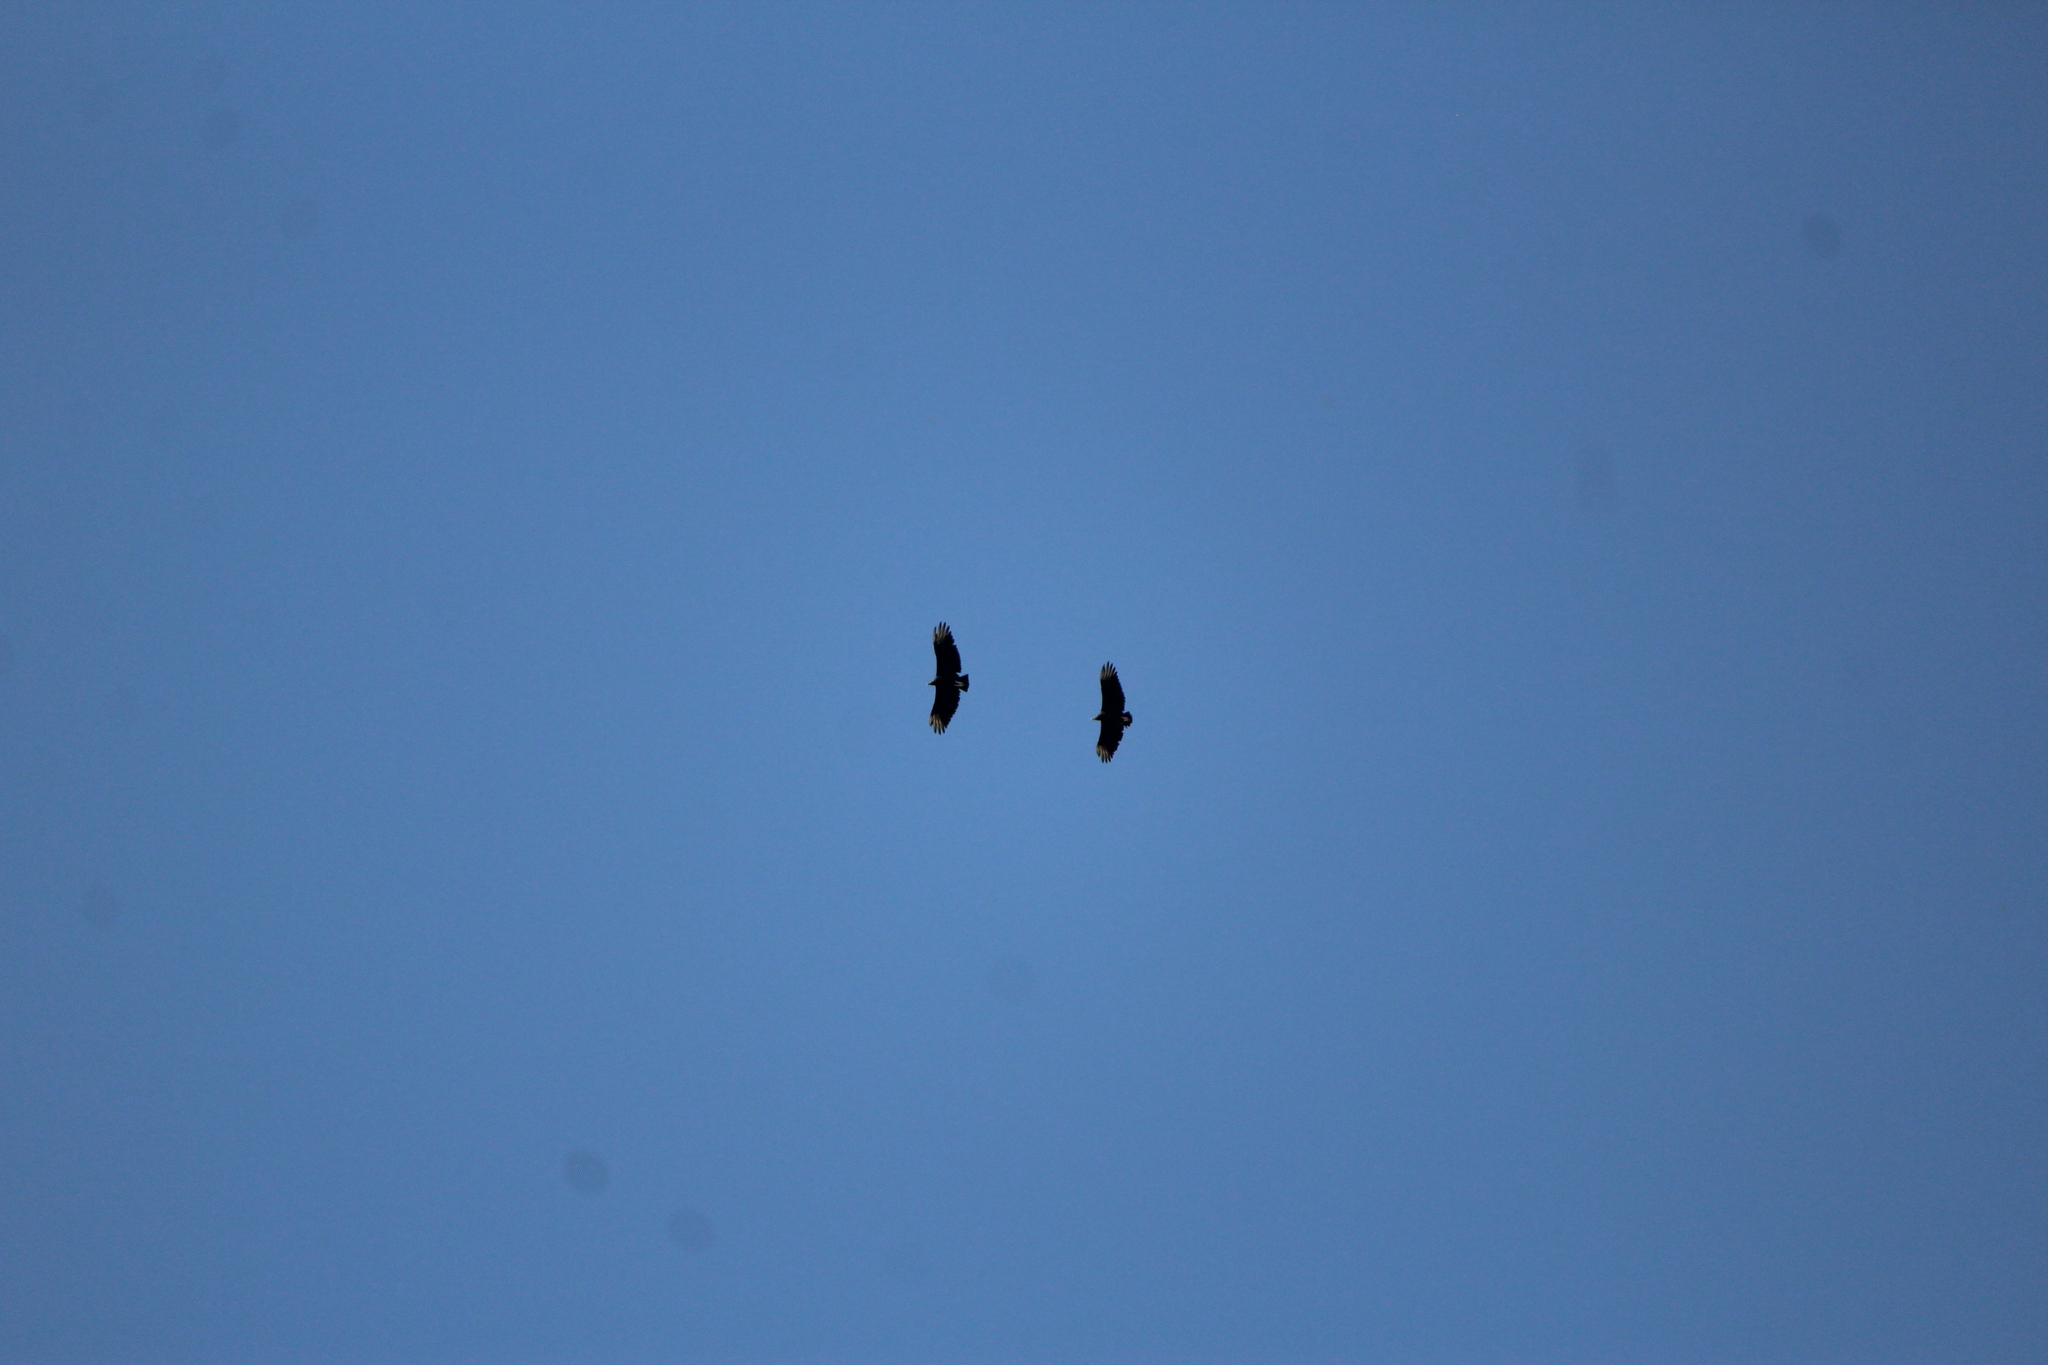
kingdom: Animalia
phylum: Chordata
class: Aves
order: Accipitriformes
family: Cathartidae
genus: Coragyps
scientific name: Coragyps atratus
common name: Black vulture
